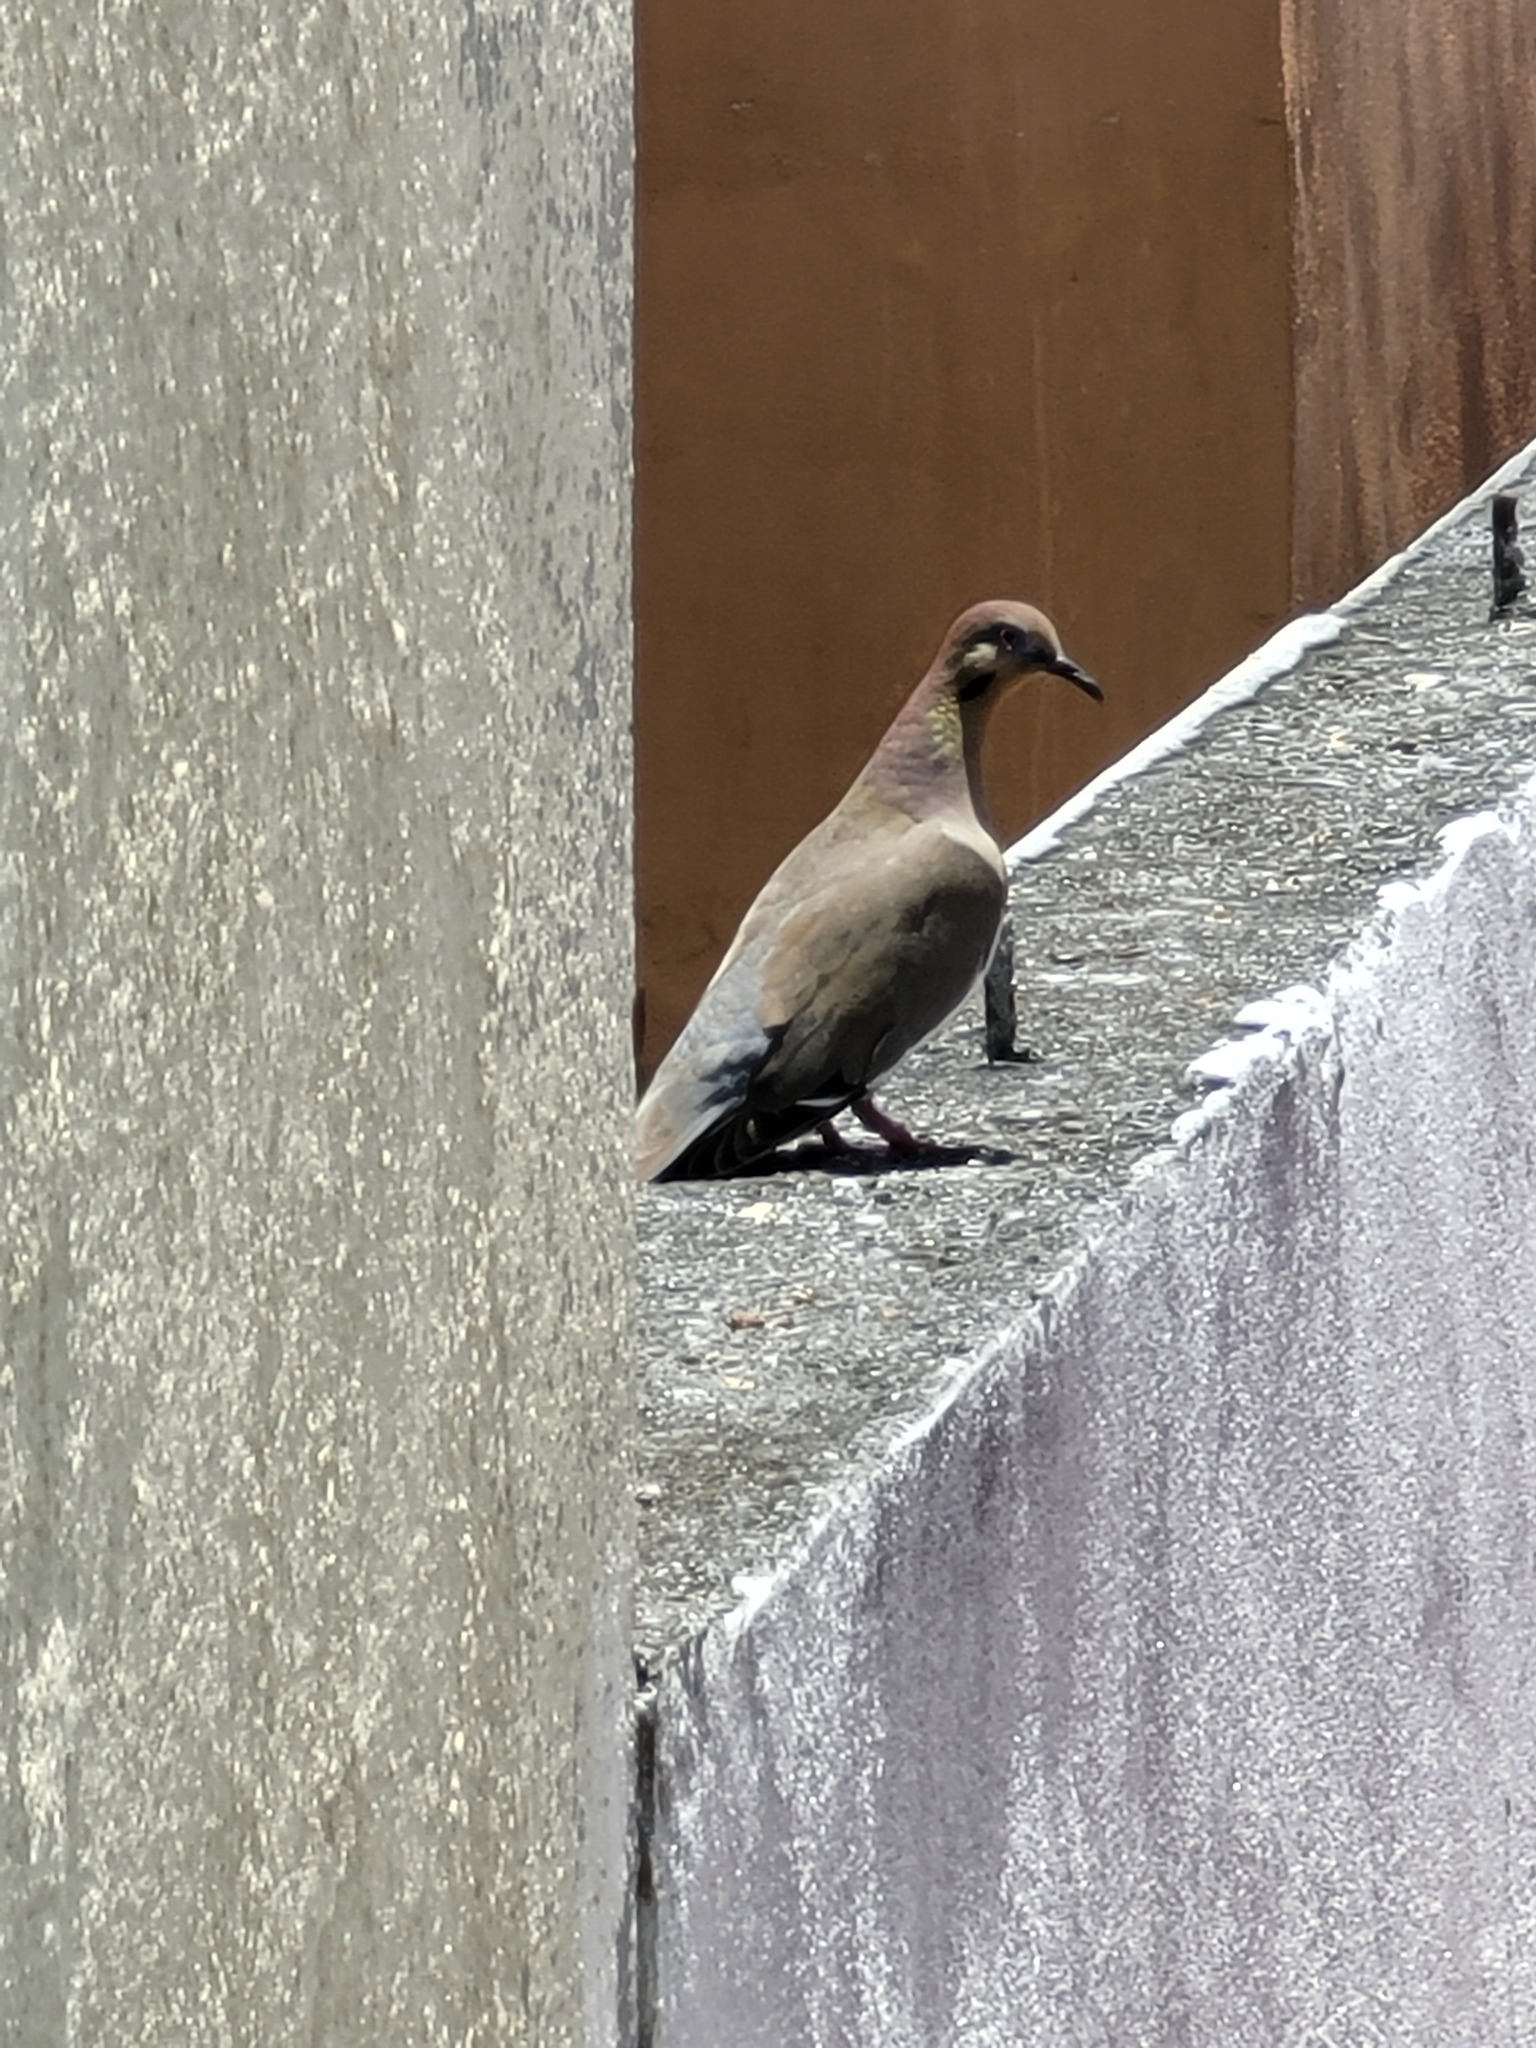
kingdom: Animalia
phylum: Chordata
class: Aves
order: Columbiformes
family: Columbidae
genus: Zenaida
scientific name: Zenaida asiatica
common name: White-winged dove
